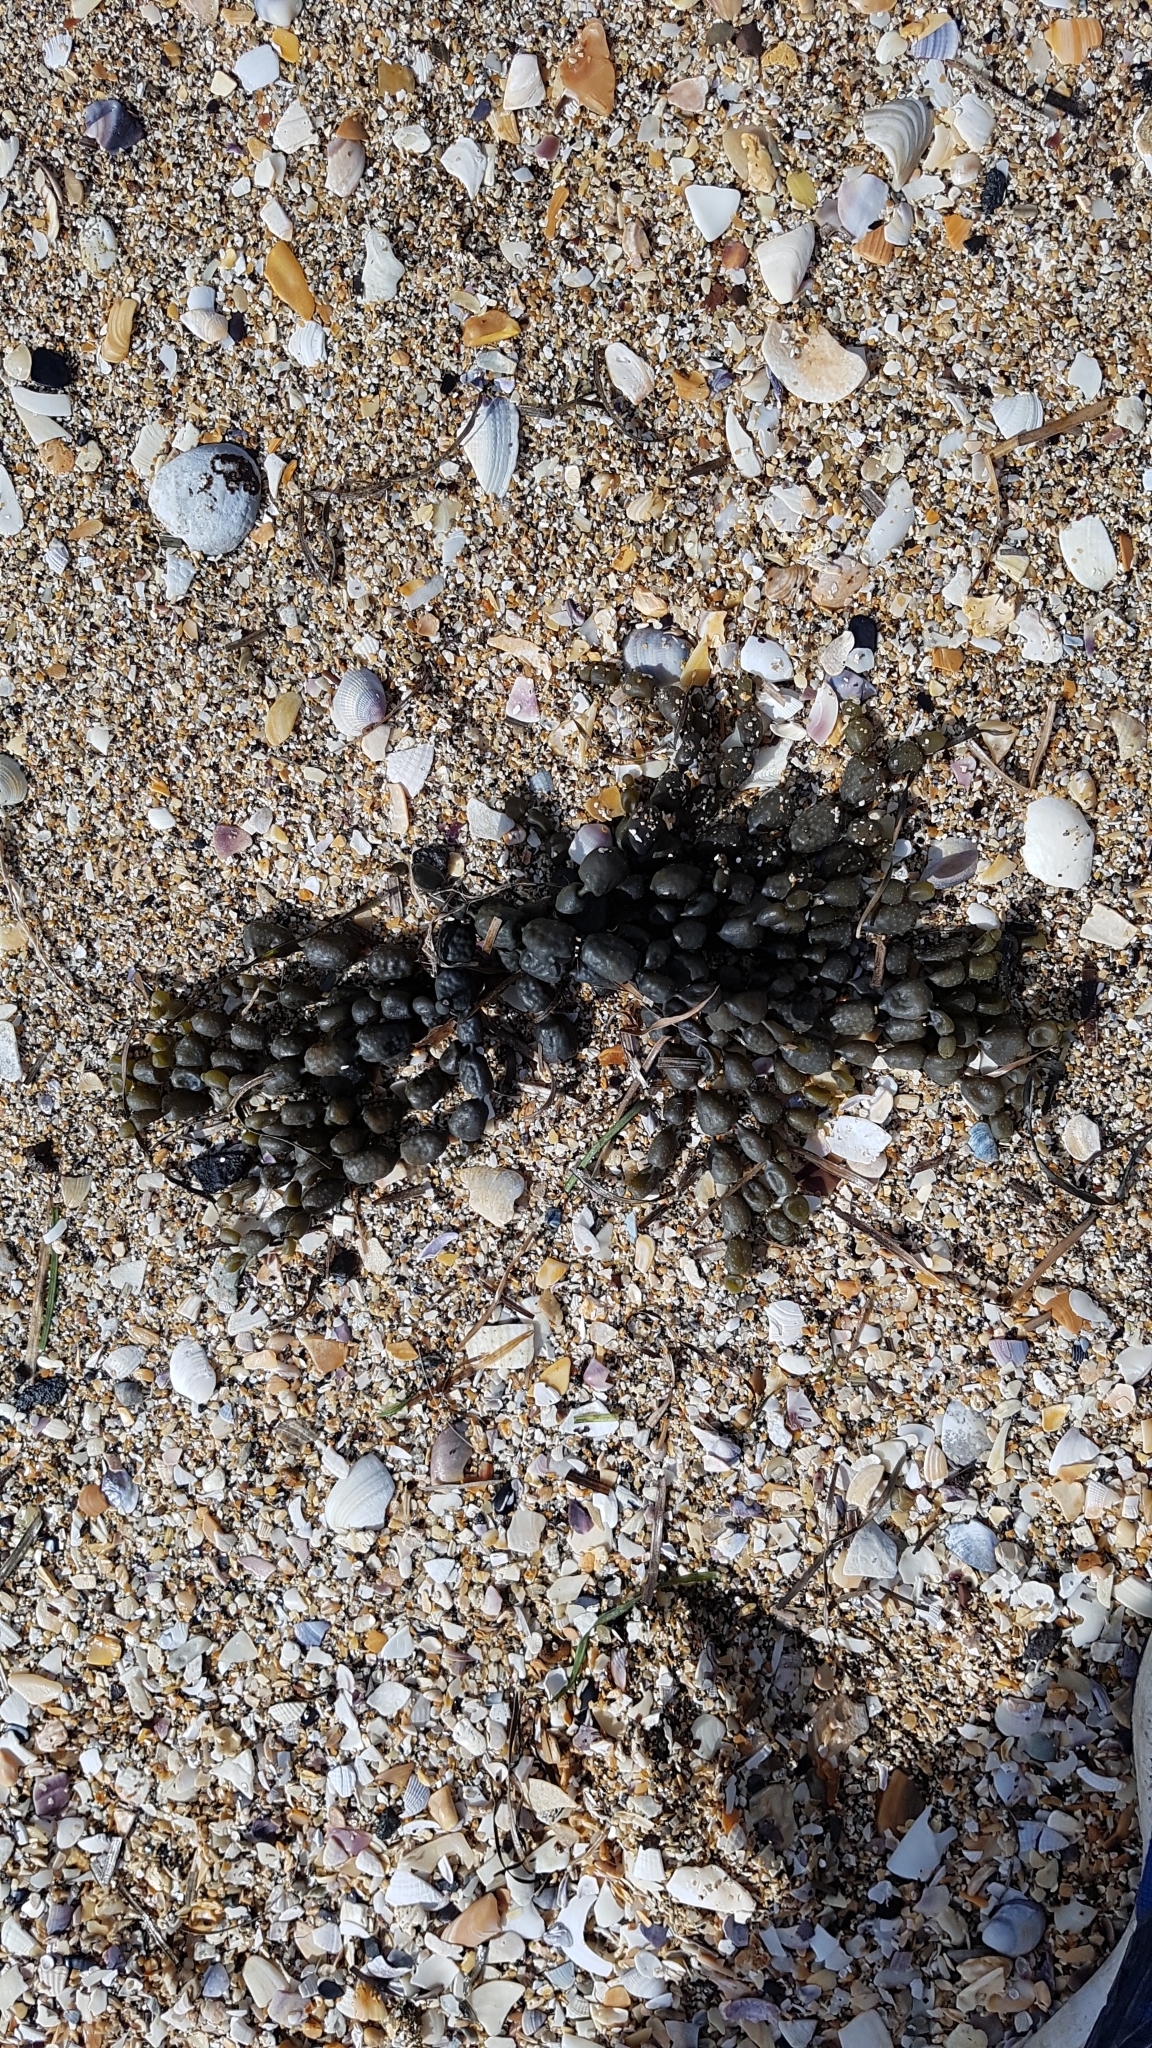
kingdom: Chromista
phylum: Ochrophyta
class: Phaeophyceae
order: Fucales
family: Hormosiraceae
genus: Hormosira
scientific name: Hormosira banksii
